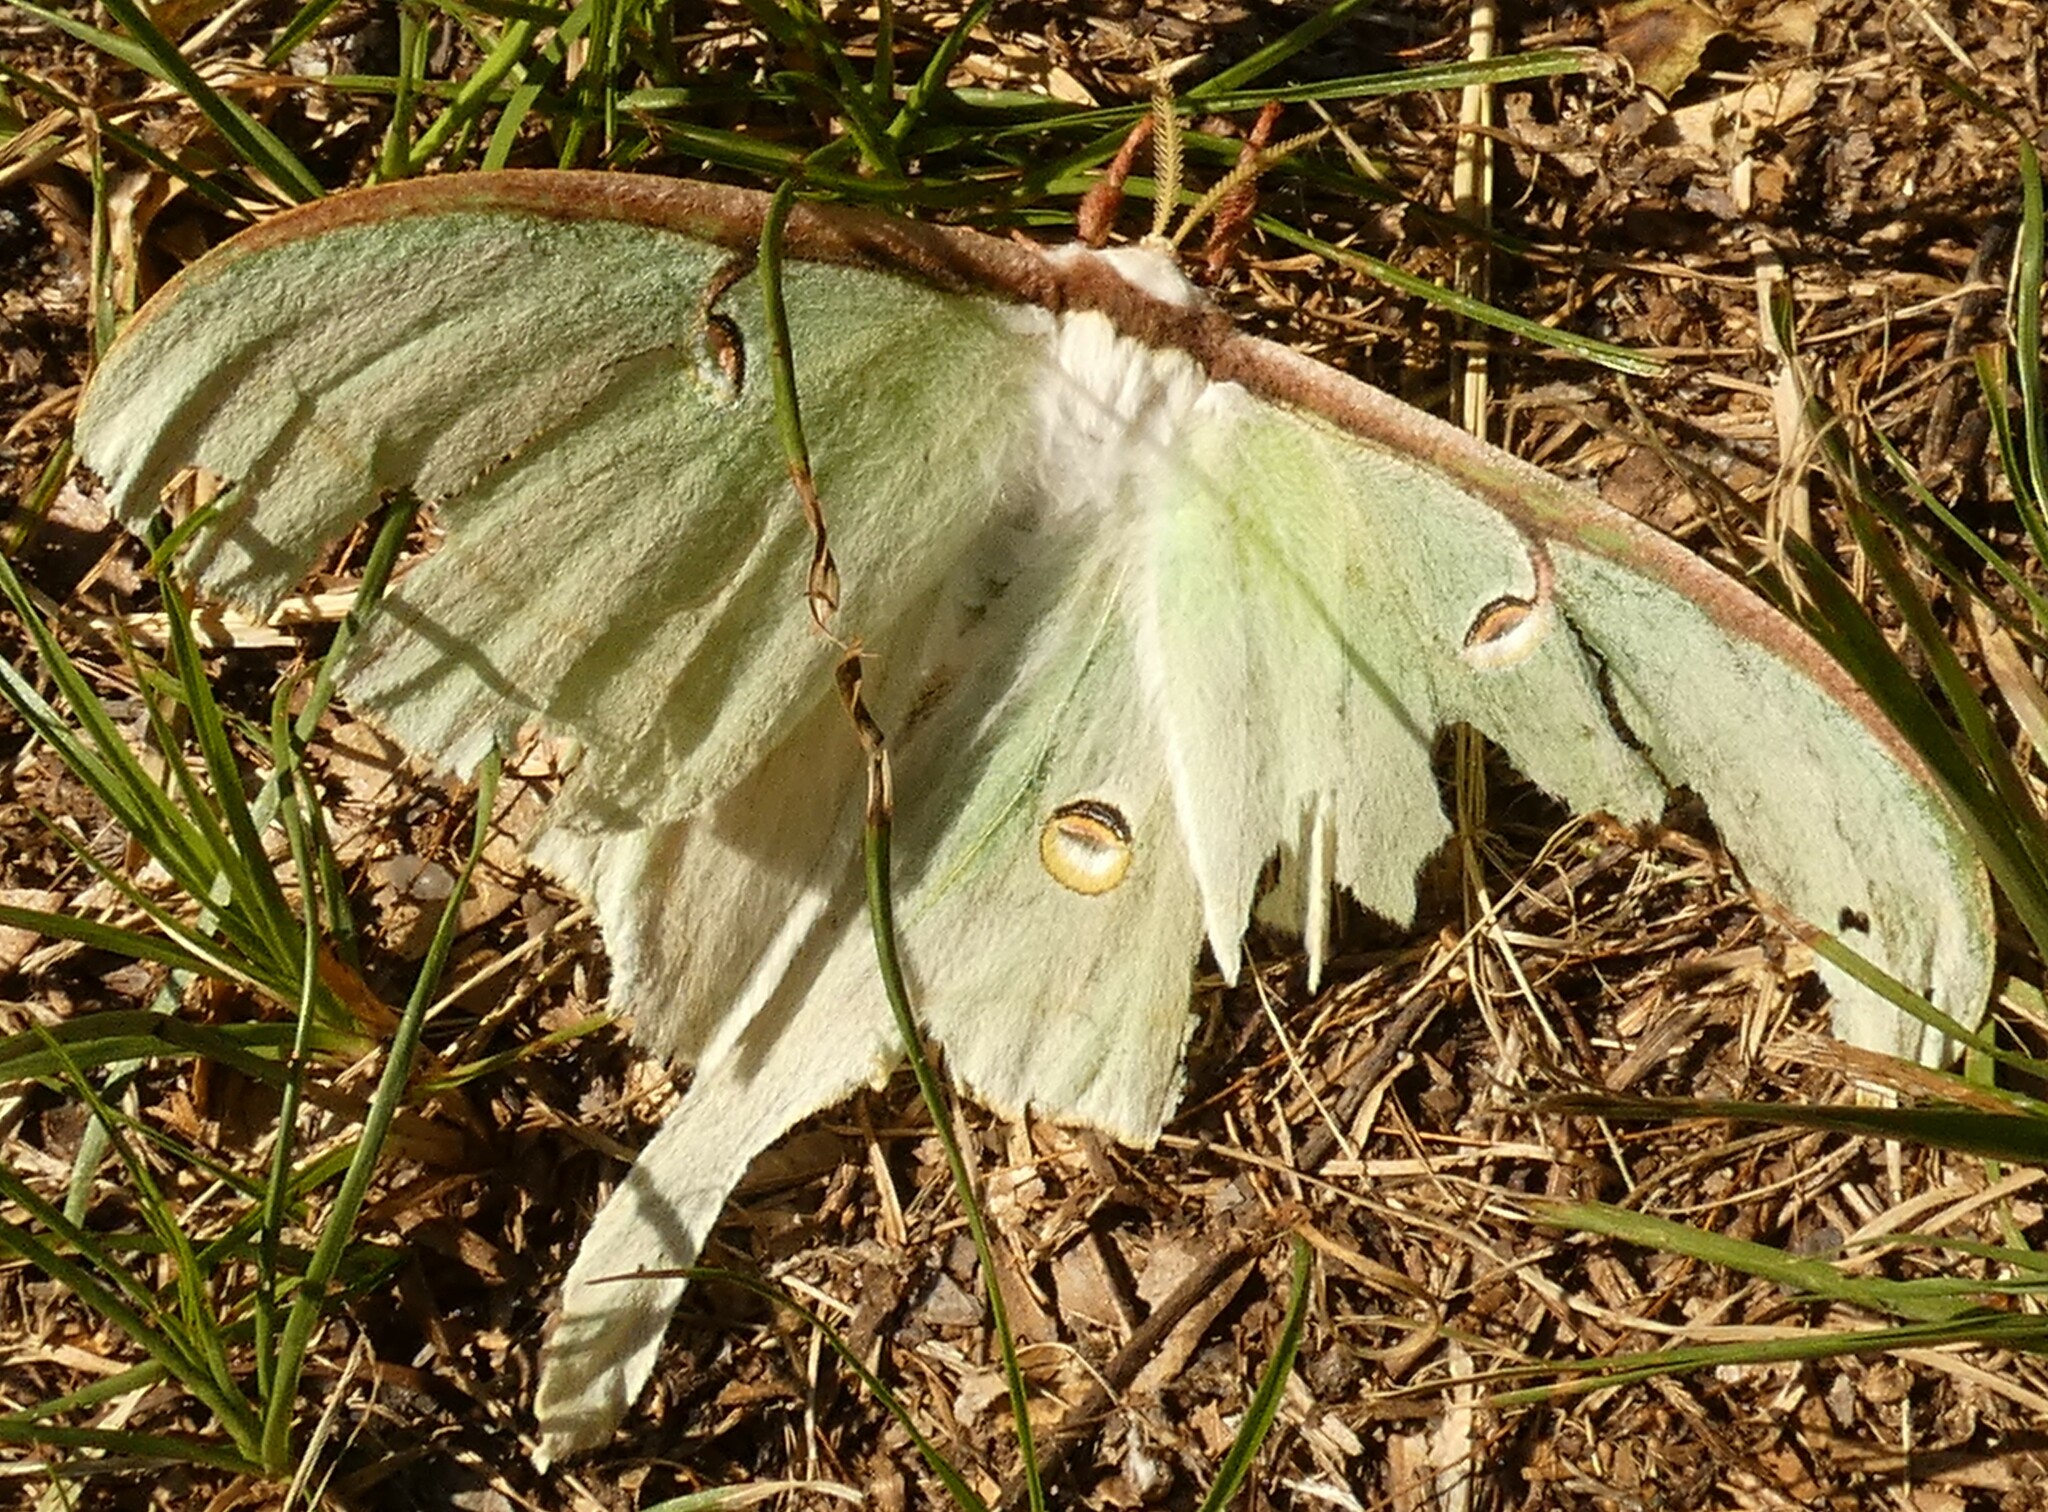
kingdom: Animalia
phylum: Arthropoda
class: Insecta
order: Lepidoptera
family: Saturniidae
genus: Actias
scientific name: Actias luna
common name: Luna moth
